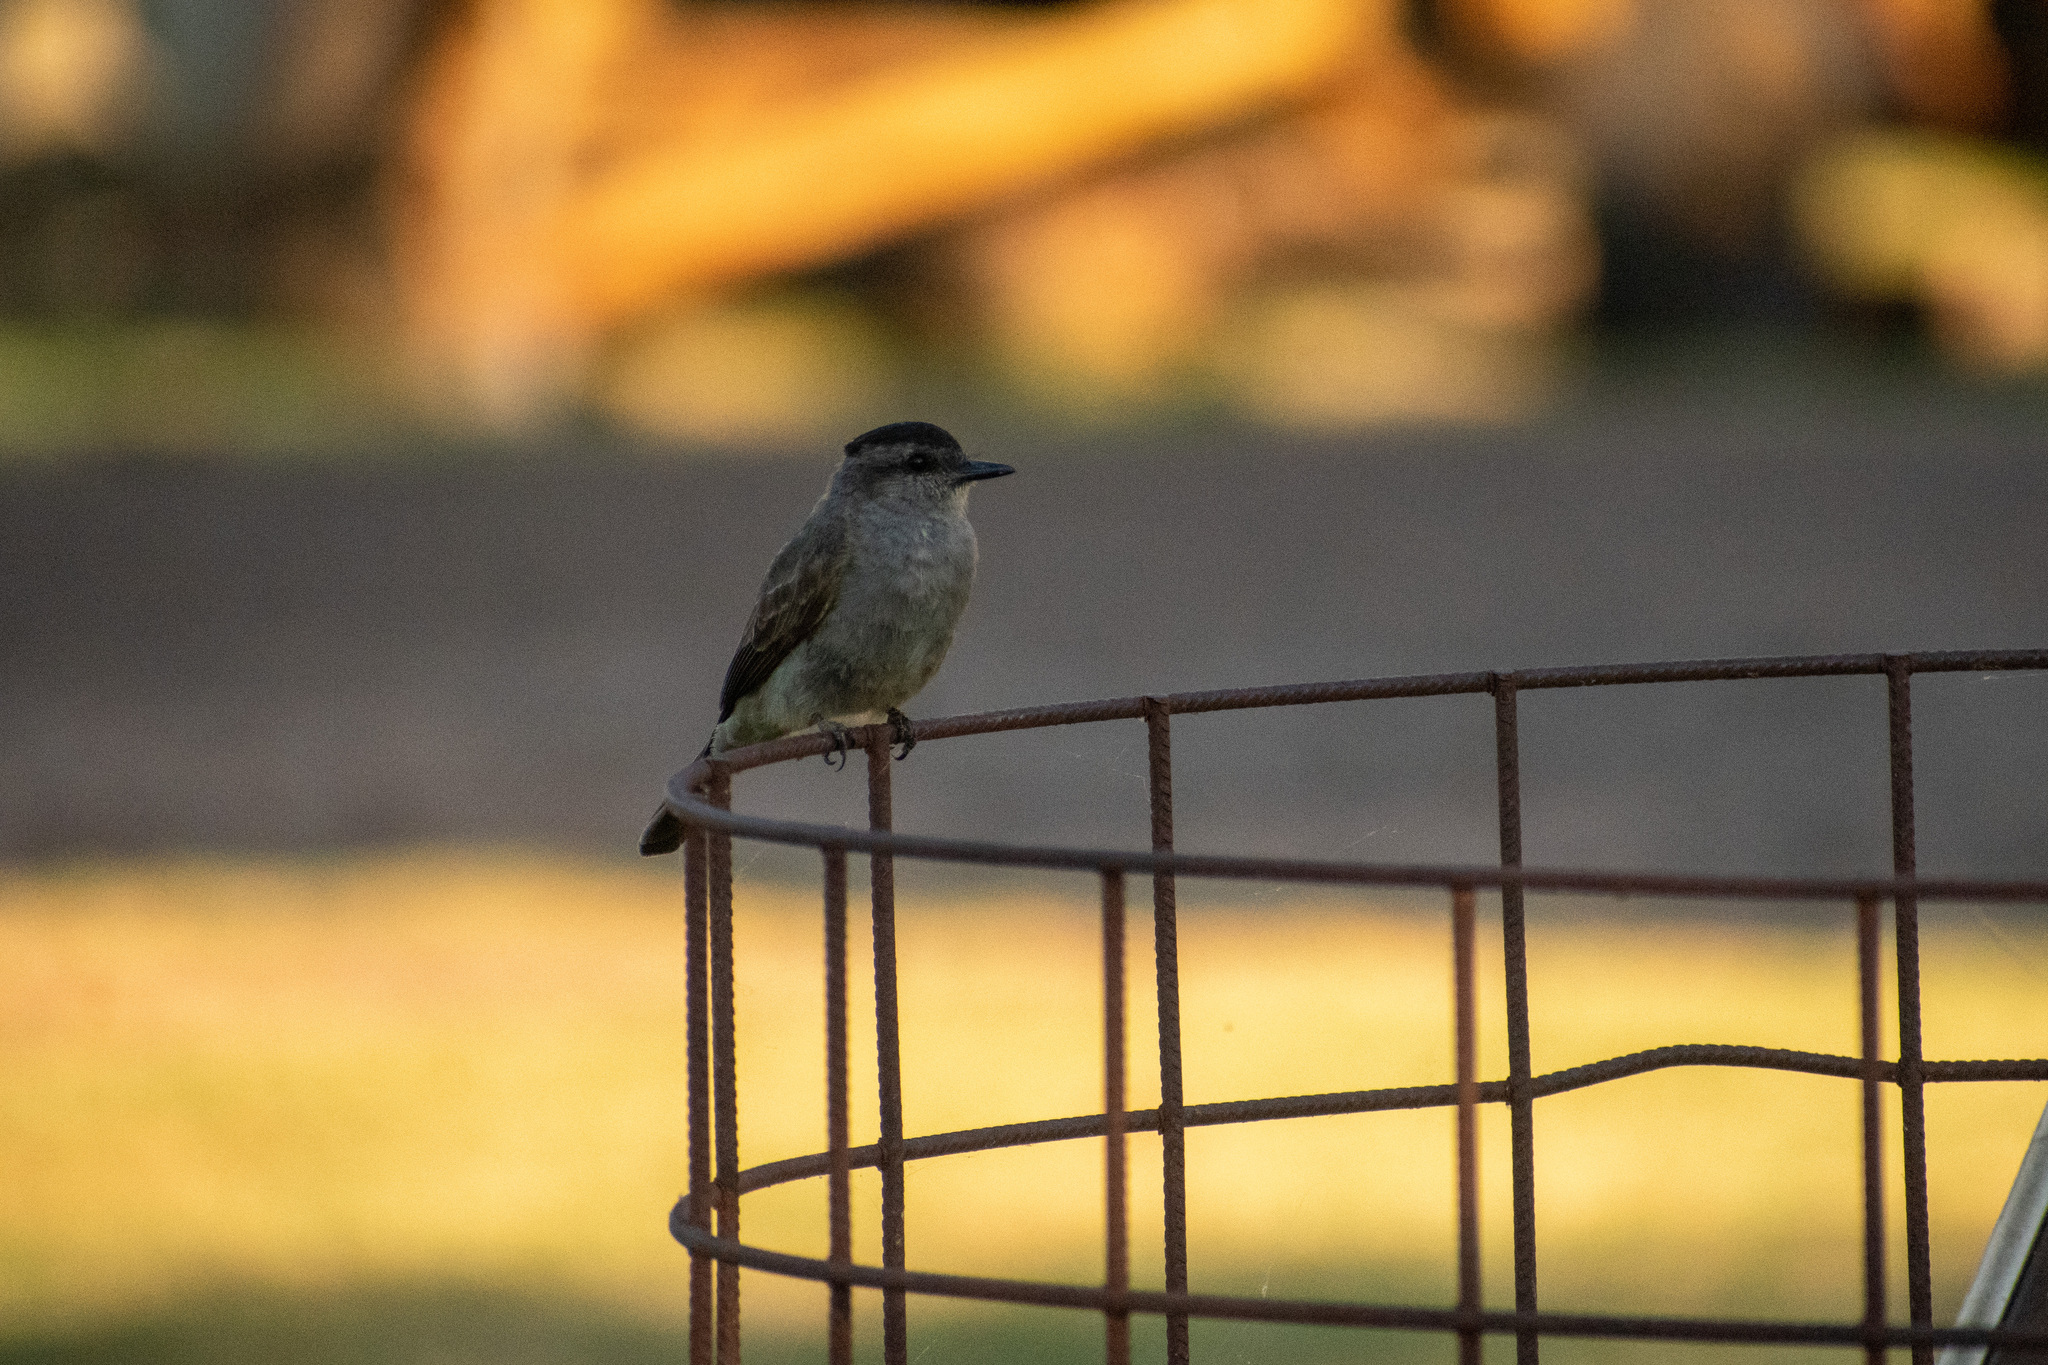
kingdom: Animalia
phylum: Chordata
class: Aves
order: Passeriformes
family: Tyrannidae
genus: Empidonomus
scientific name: Empidonomus aurantioatrocristatus
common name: Crowned slaty flycatcher
